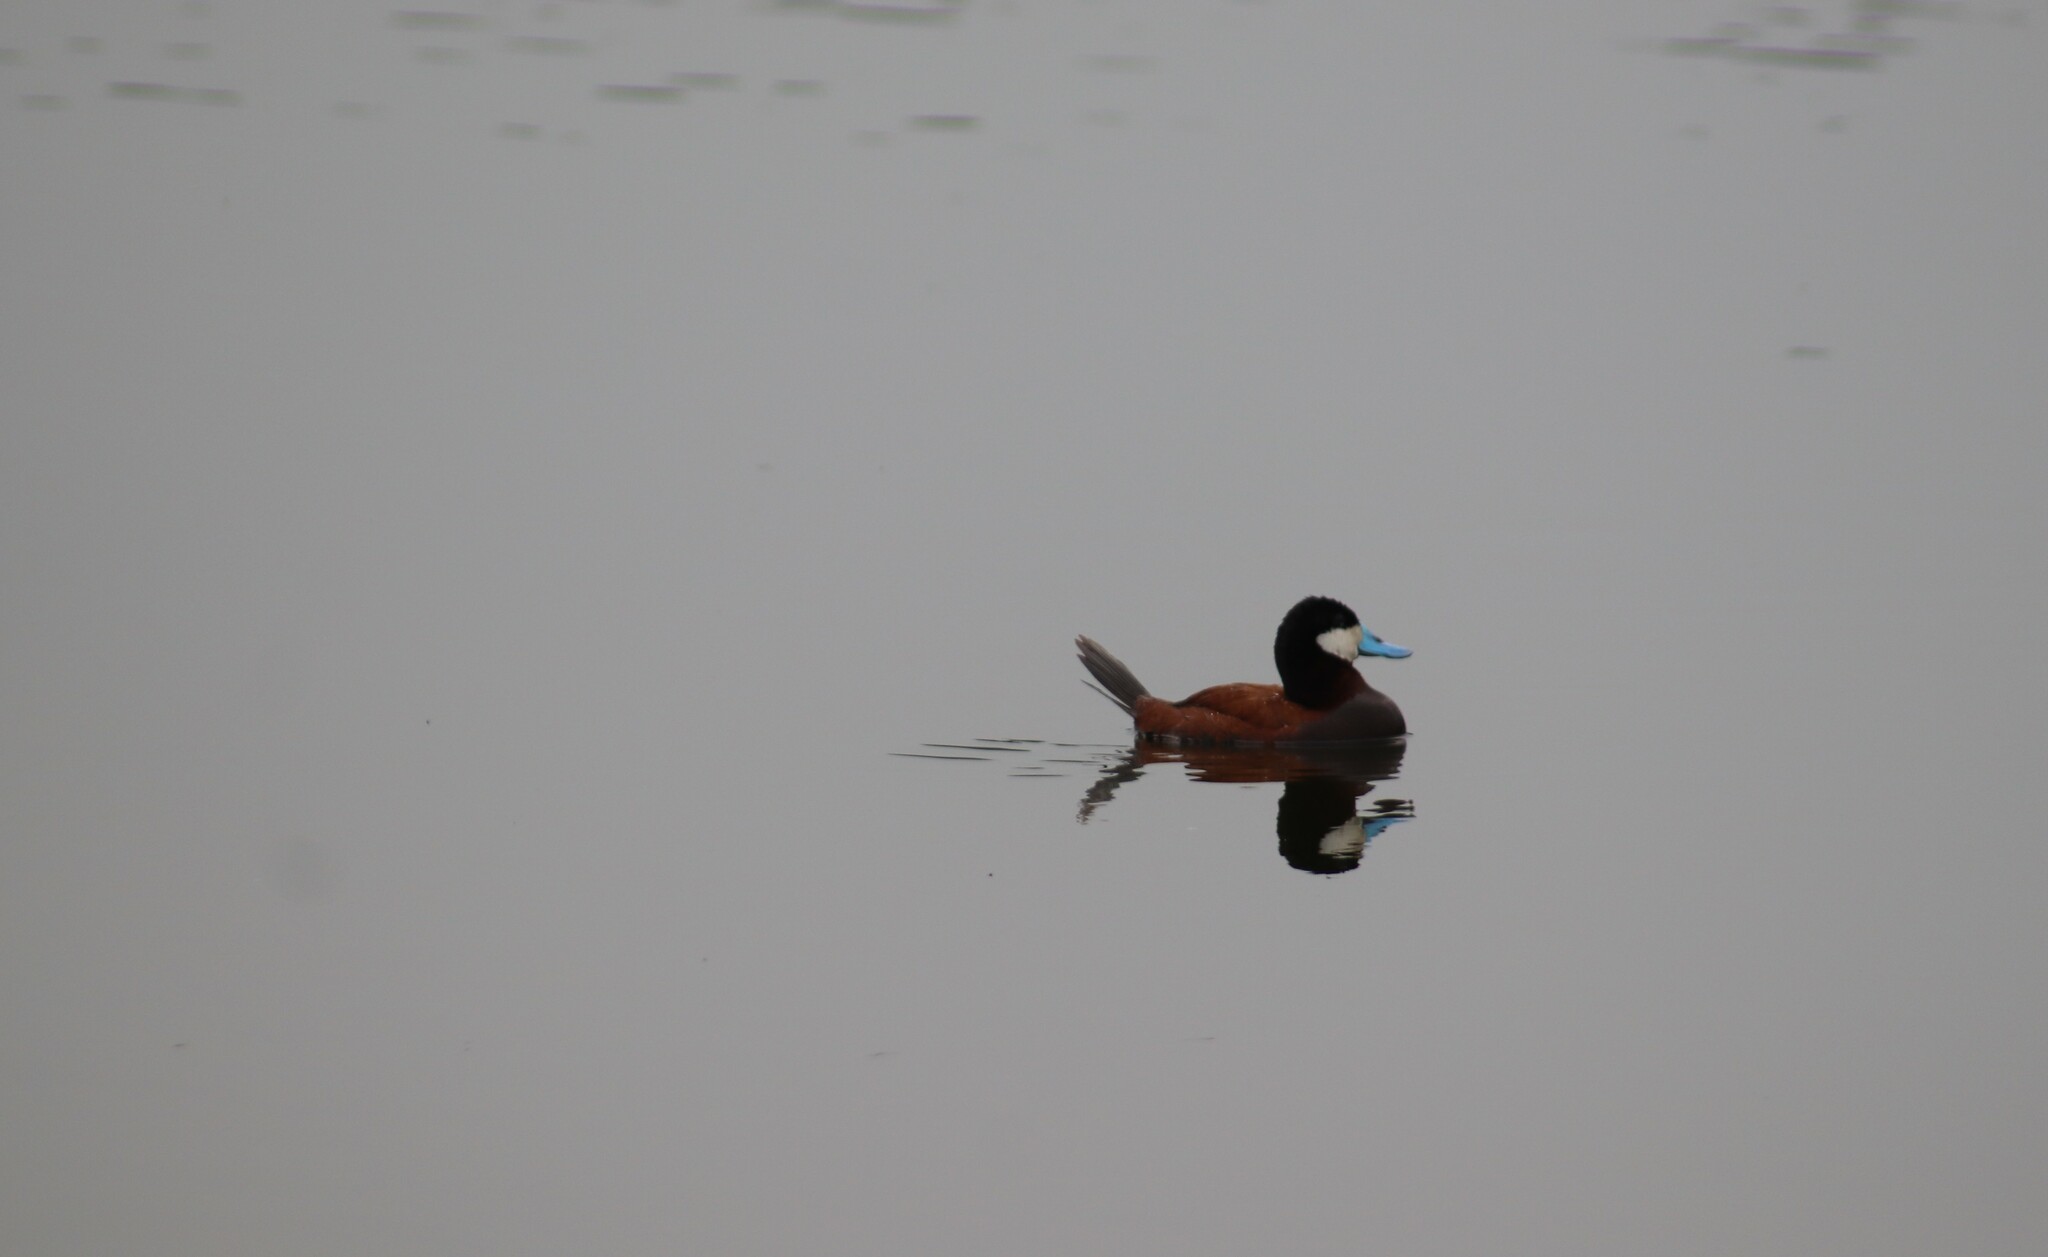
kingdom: Animalia
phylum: Chordata
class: Aves
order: Anseriformes
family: Anatidae
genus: Oxyura
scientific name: Oxyura jamaicensis
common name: Ruddy duck
